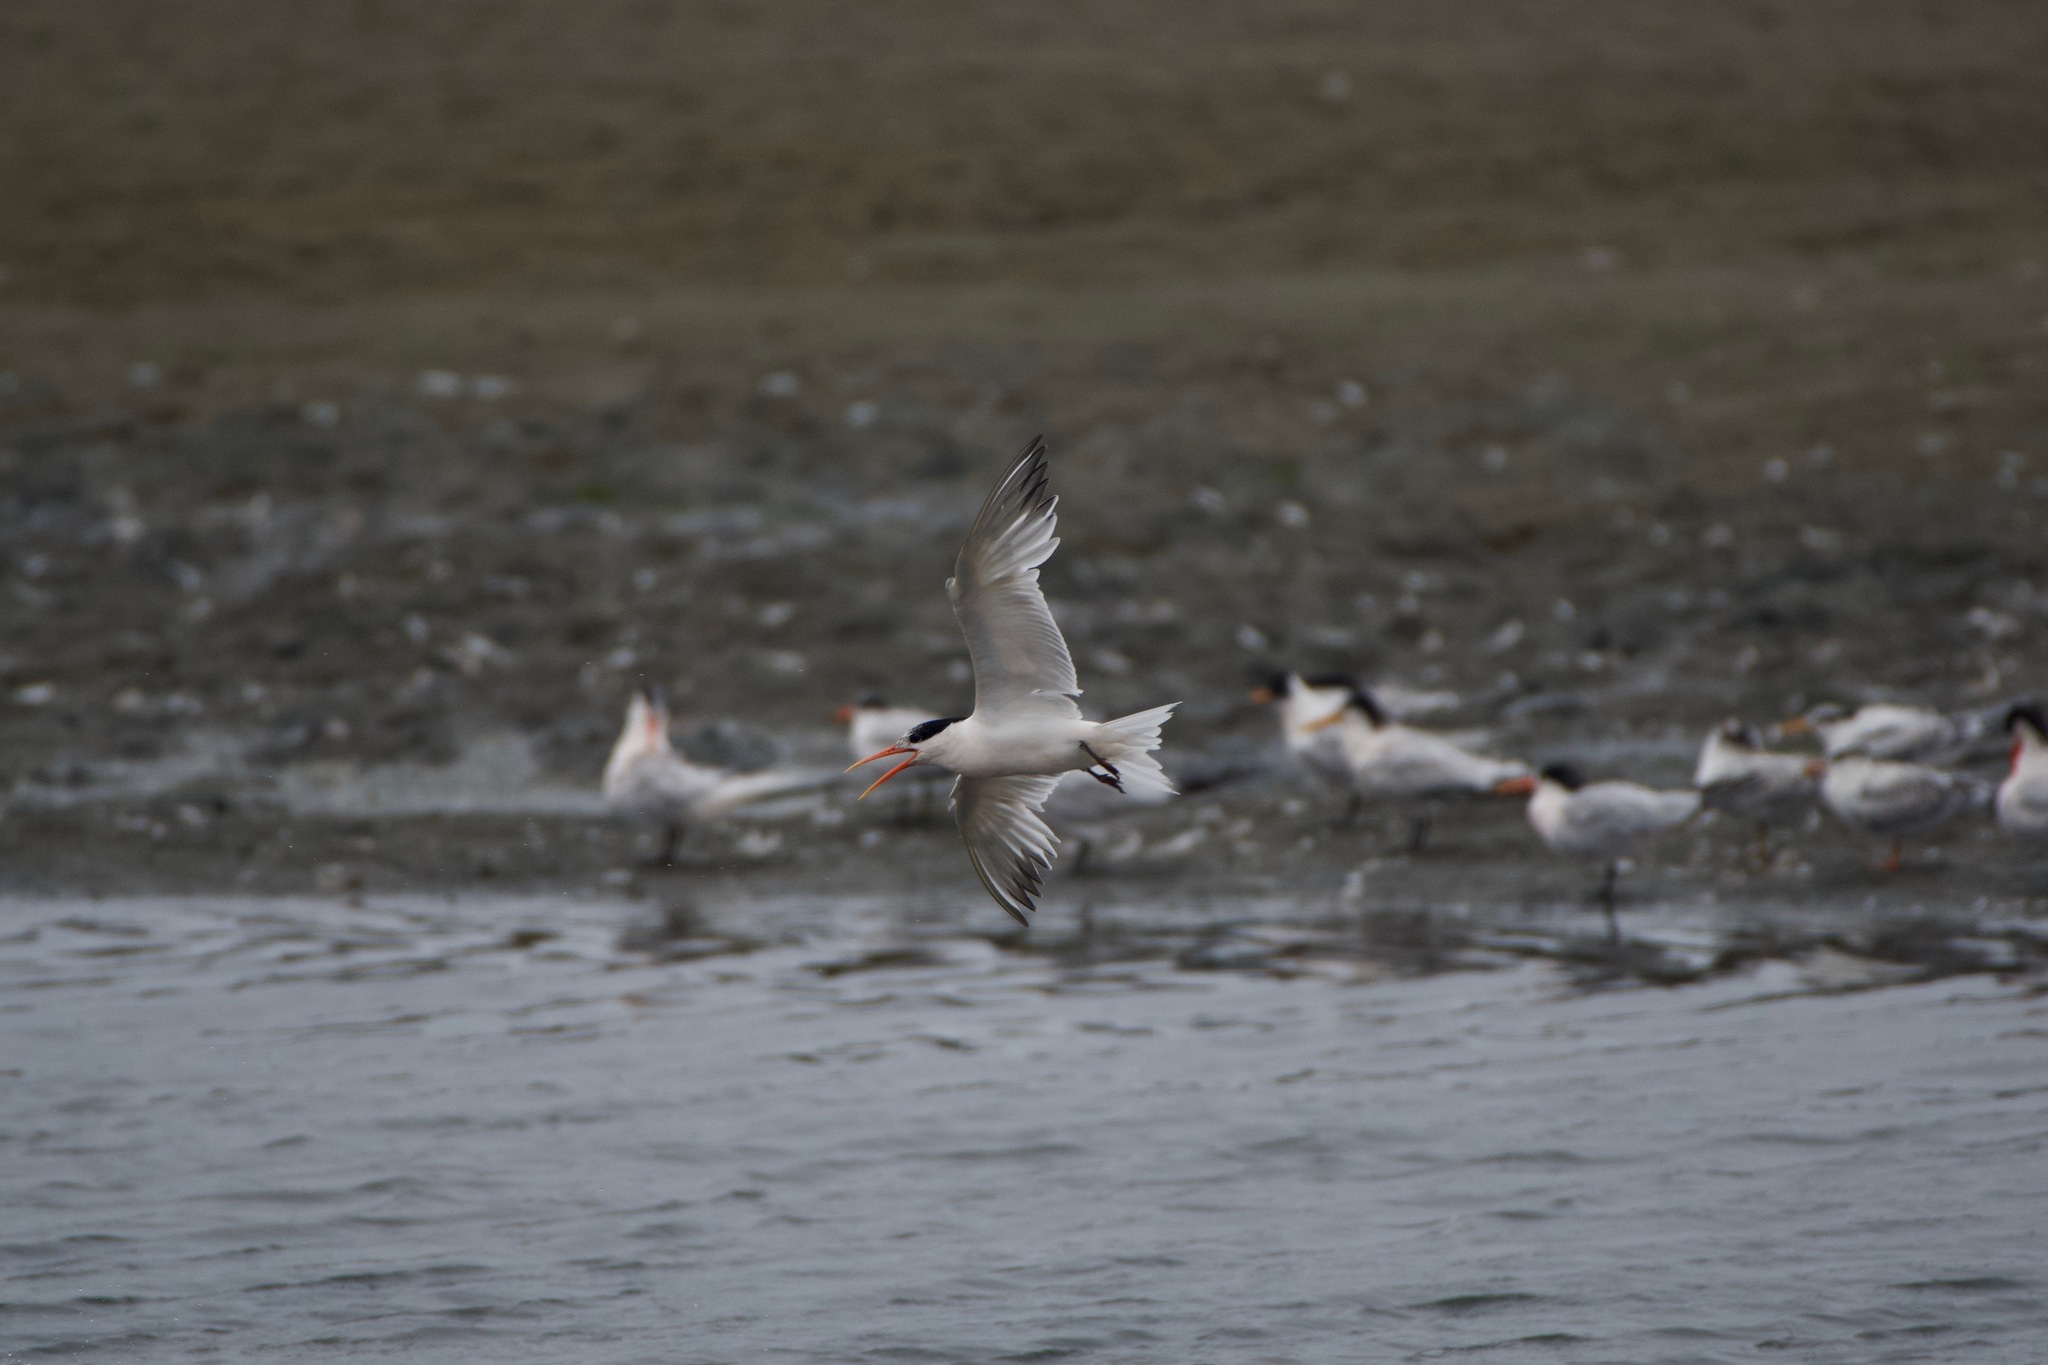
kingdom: Animalia
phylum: Chordata
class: Aves
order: Charadriiformes
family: Laridae
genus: Thalasseus
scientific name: Thalasseus elegans
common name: Elegant tern
